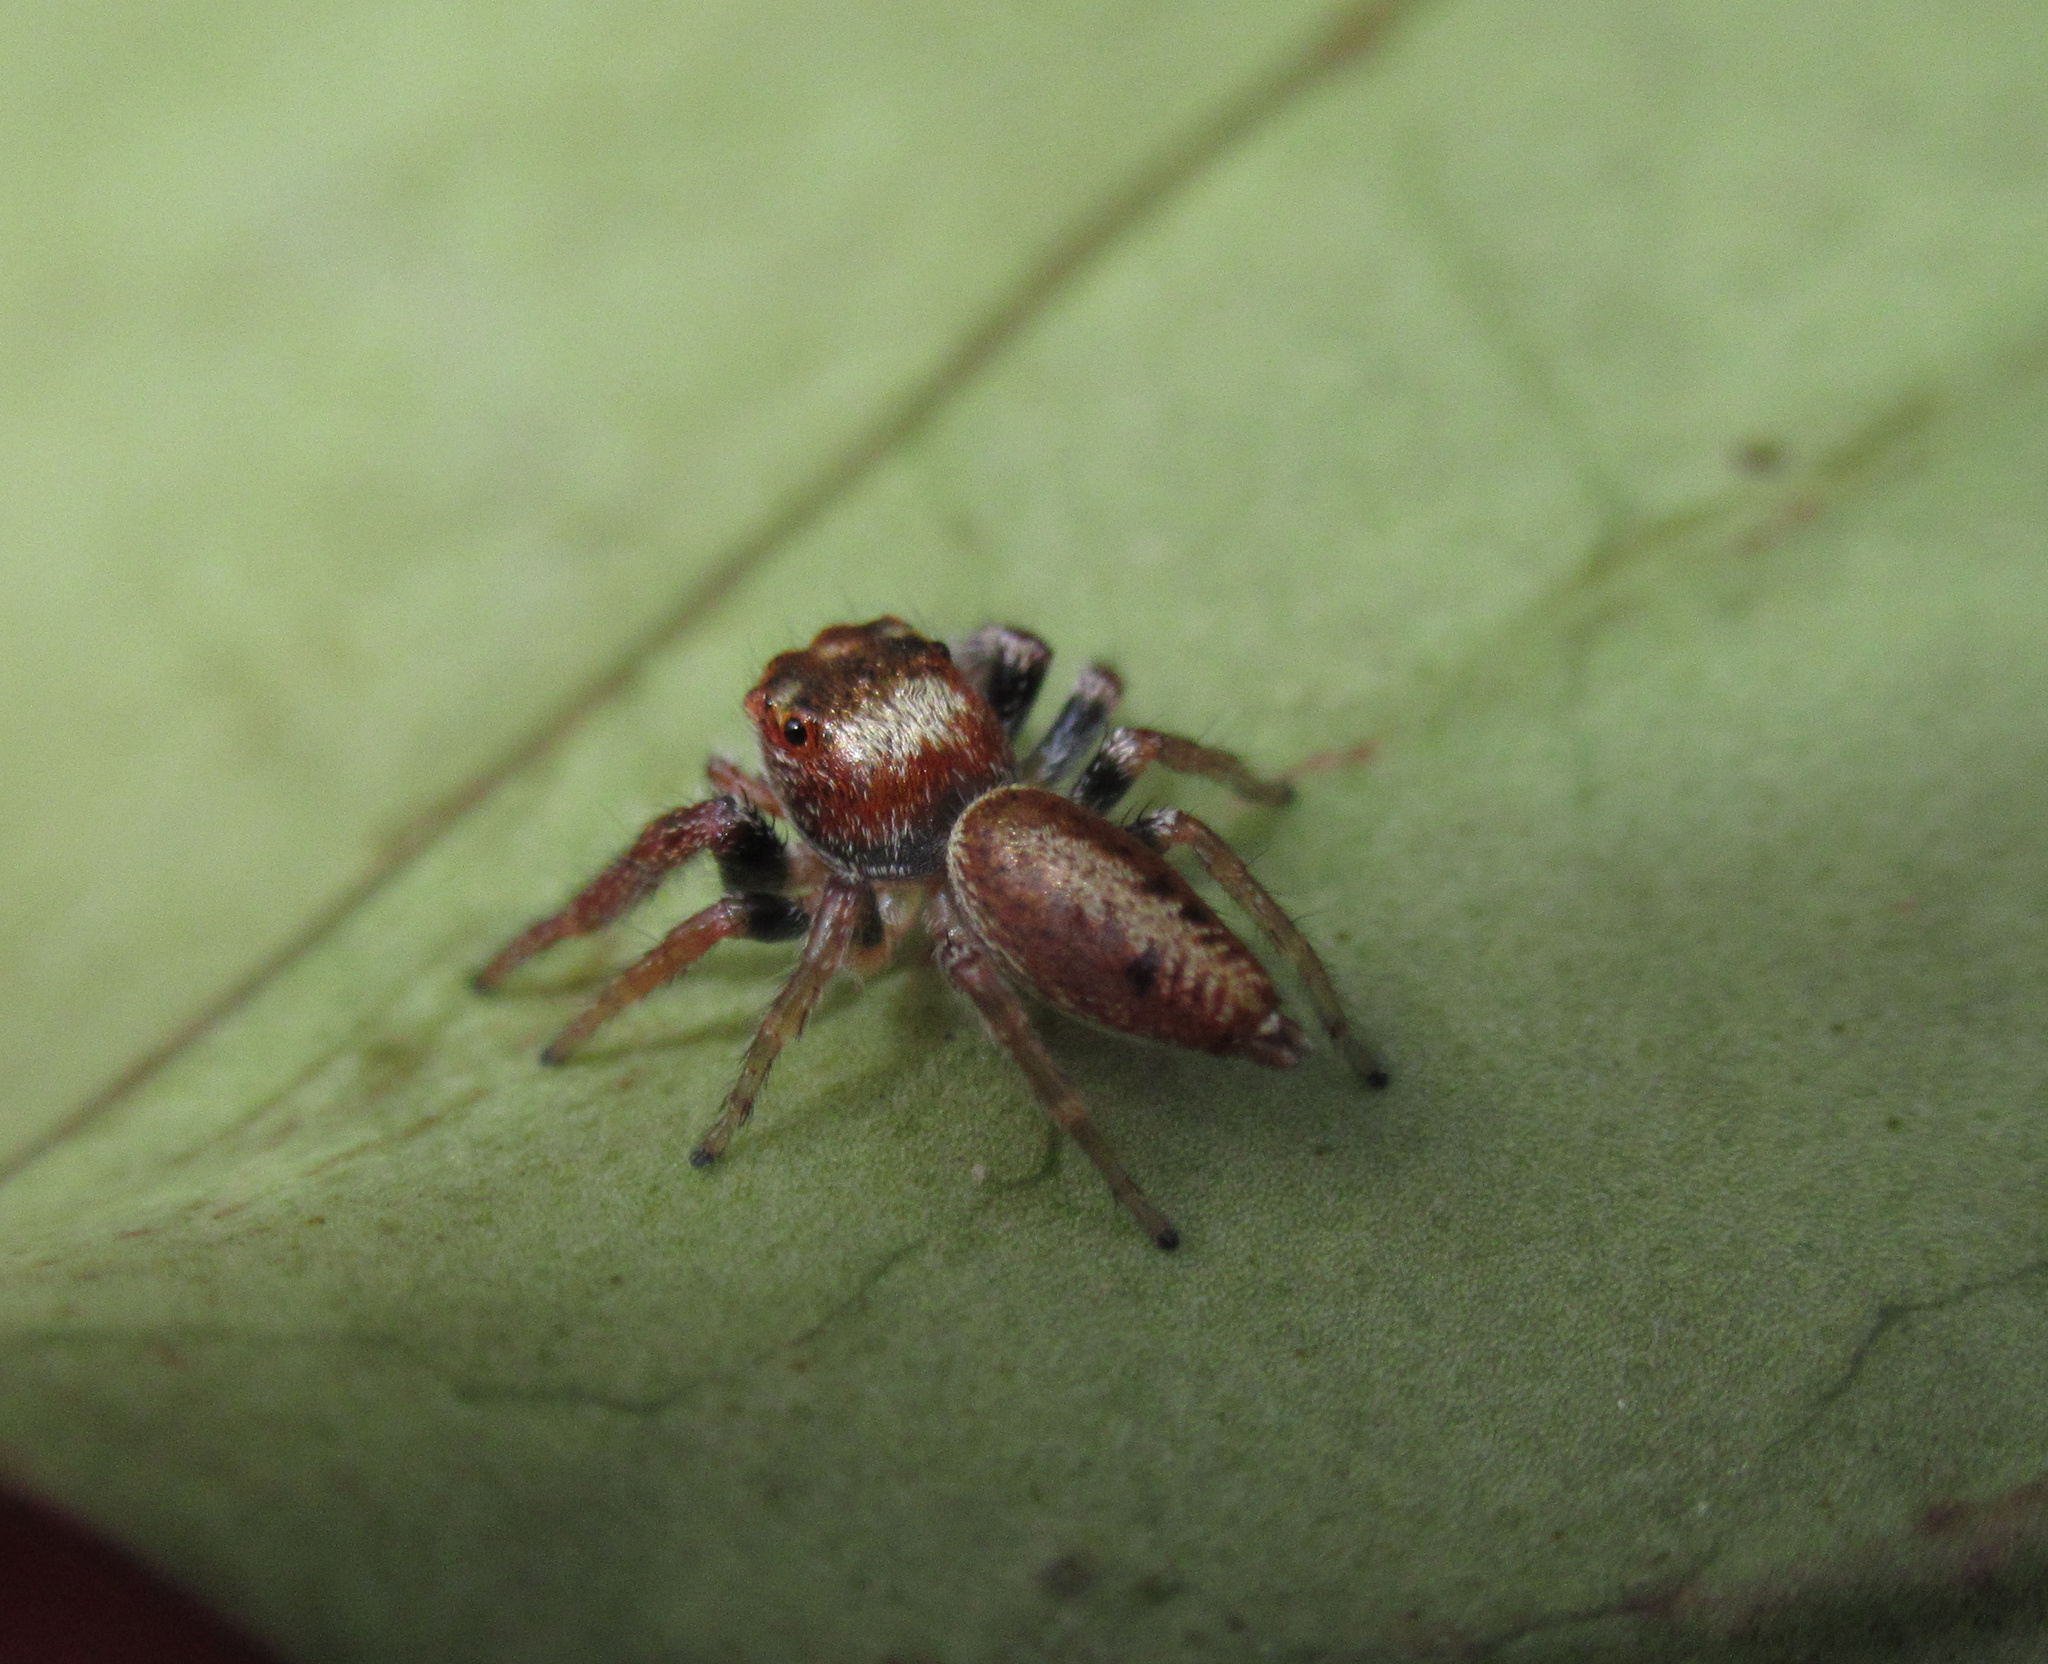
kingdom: Animalia
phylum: Arthropoda
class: Arachnida
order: Araneae
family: Salticidae
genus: Opisthoncus
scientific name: Opisthoncus polyphemus
